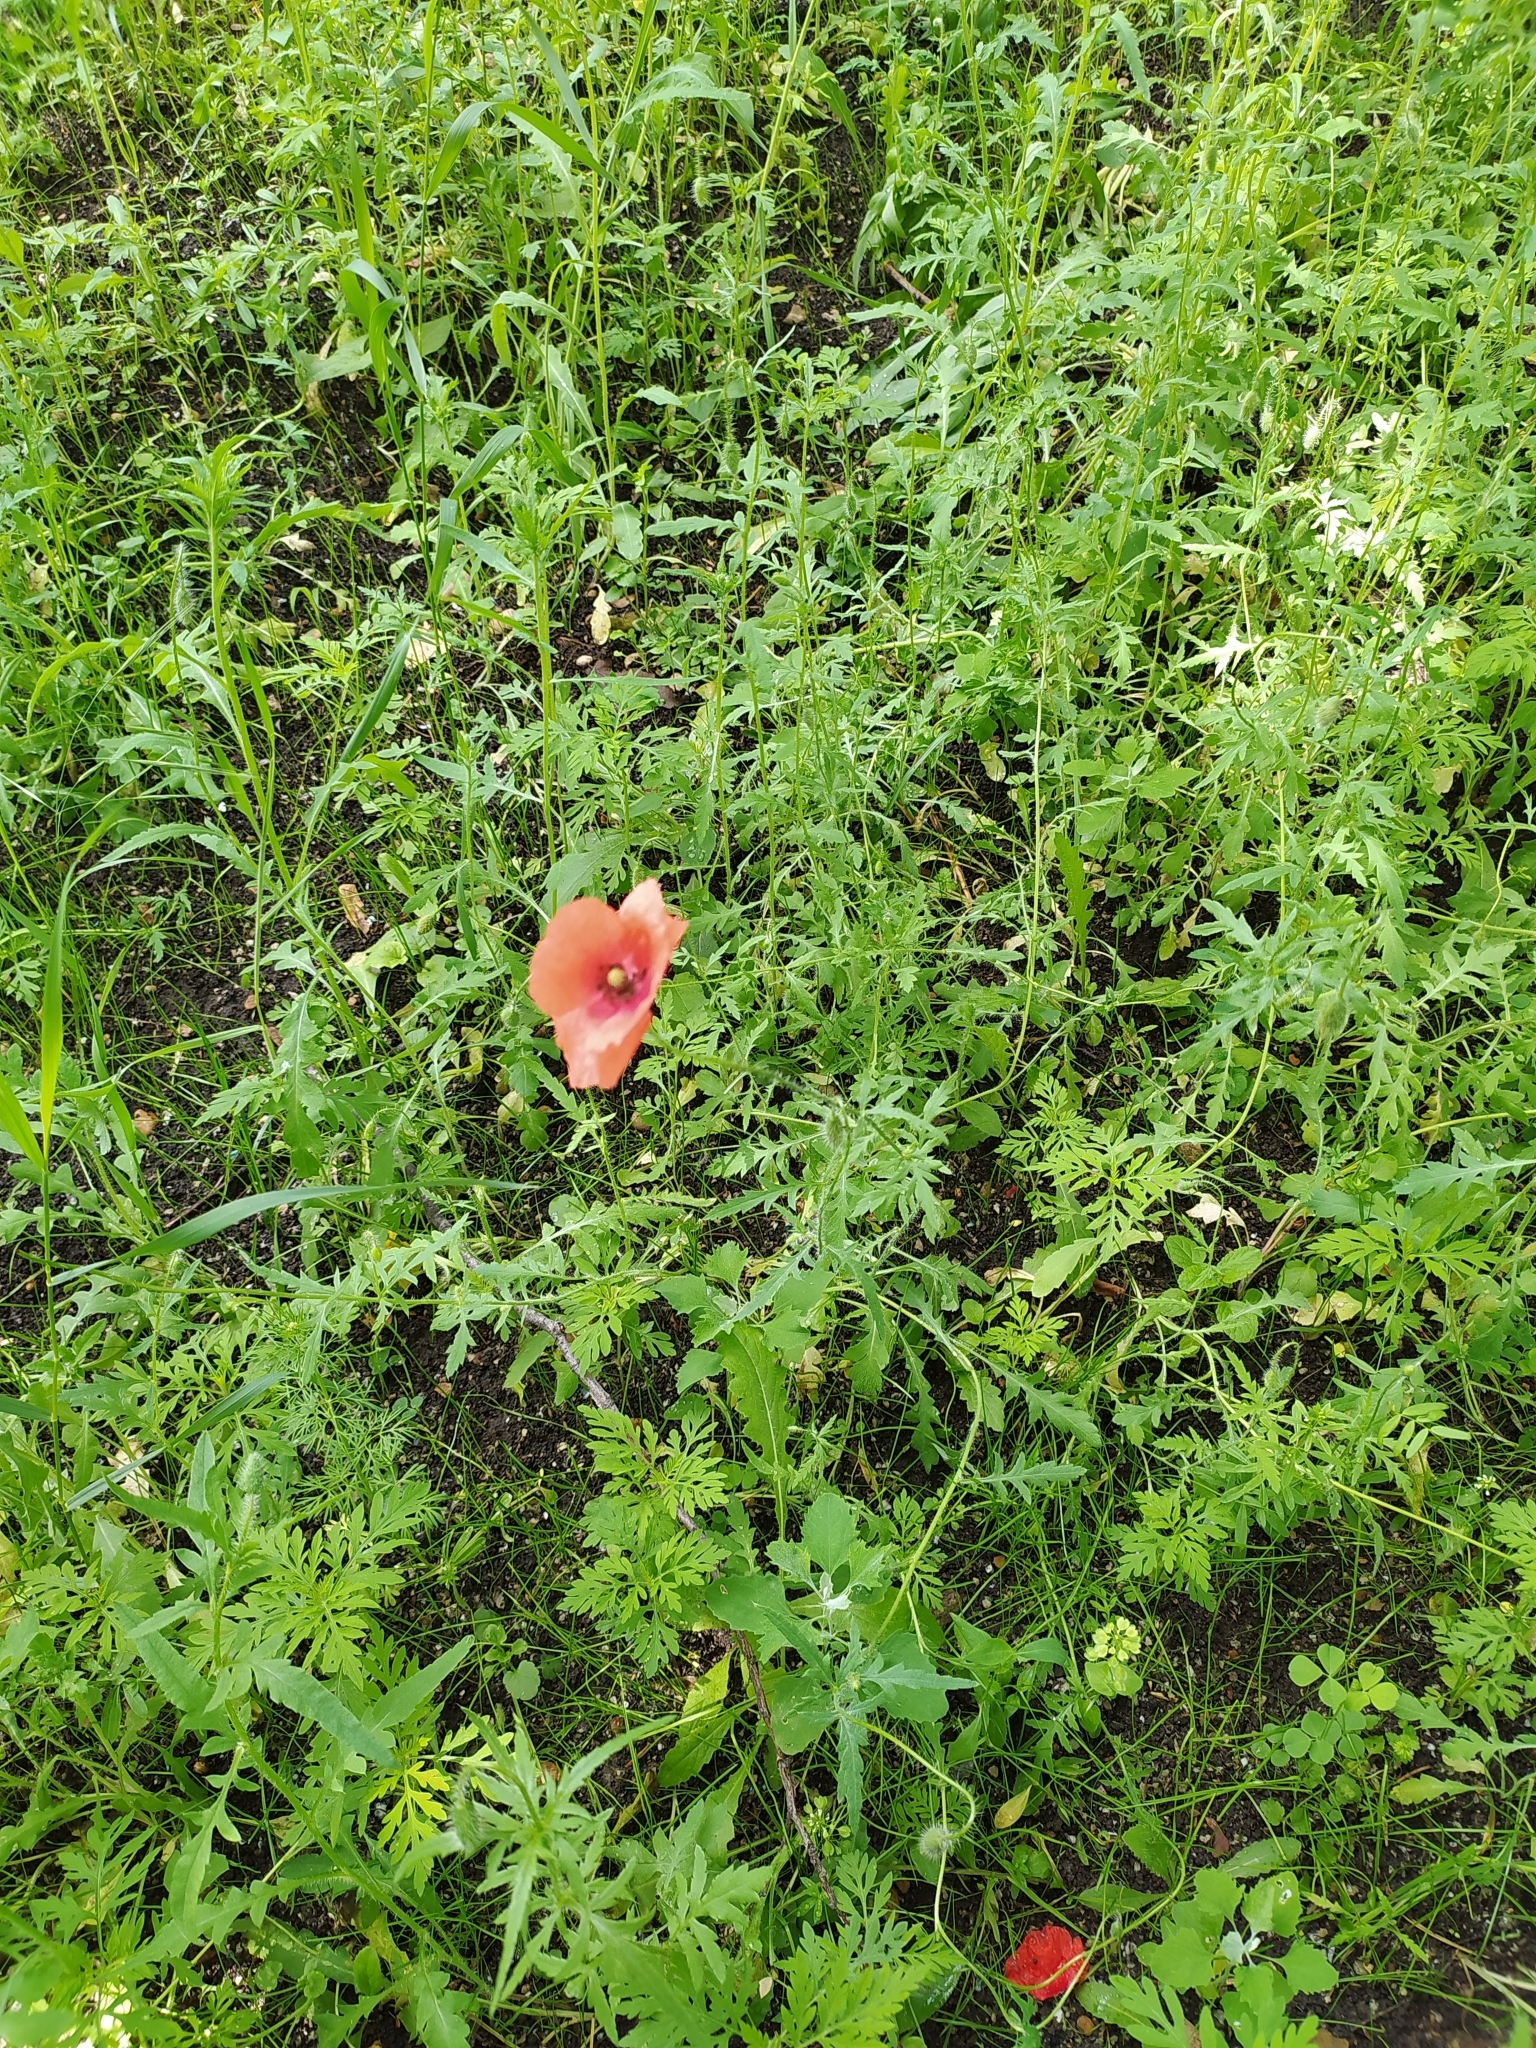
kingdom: Plantae
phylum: Tracheophyta
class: Magnoliopsida
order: Ranunculales
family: Papaveraceae
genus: Papaver
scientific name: Papaver rhoeas
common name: Corn poppy
